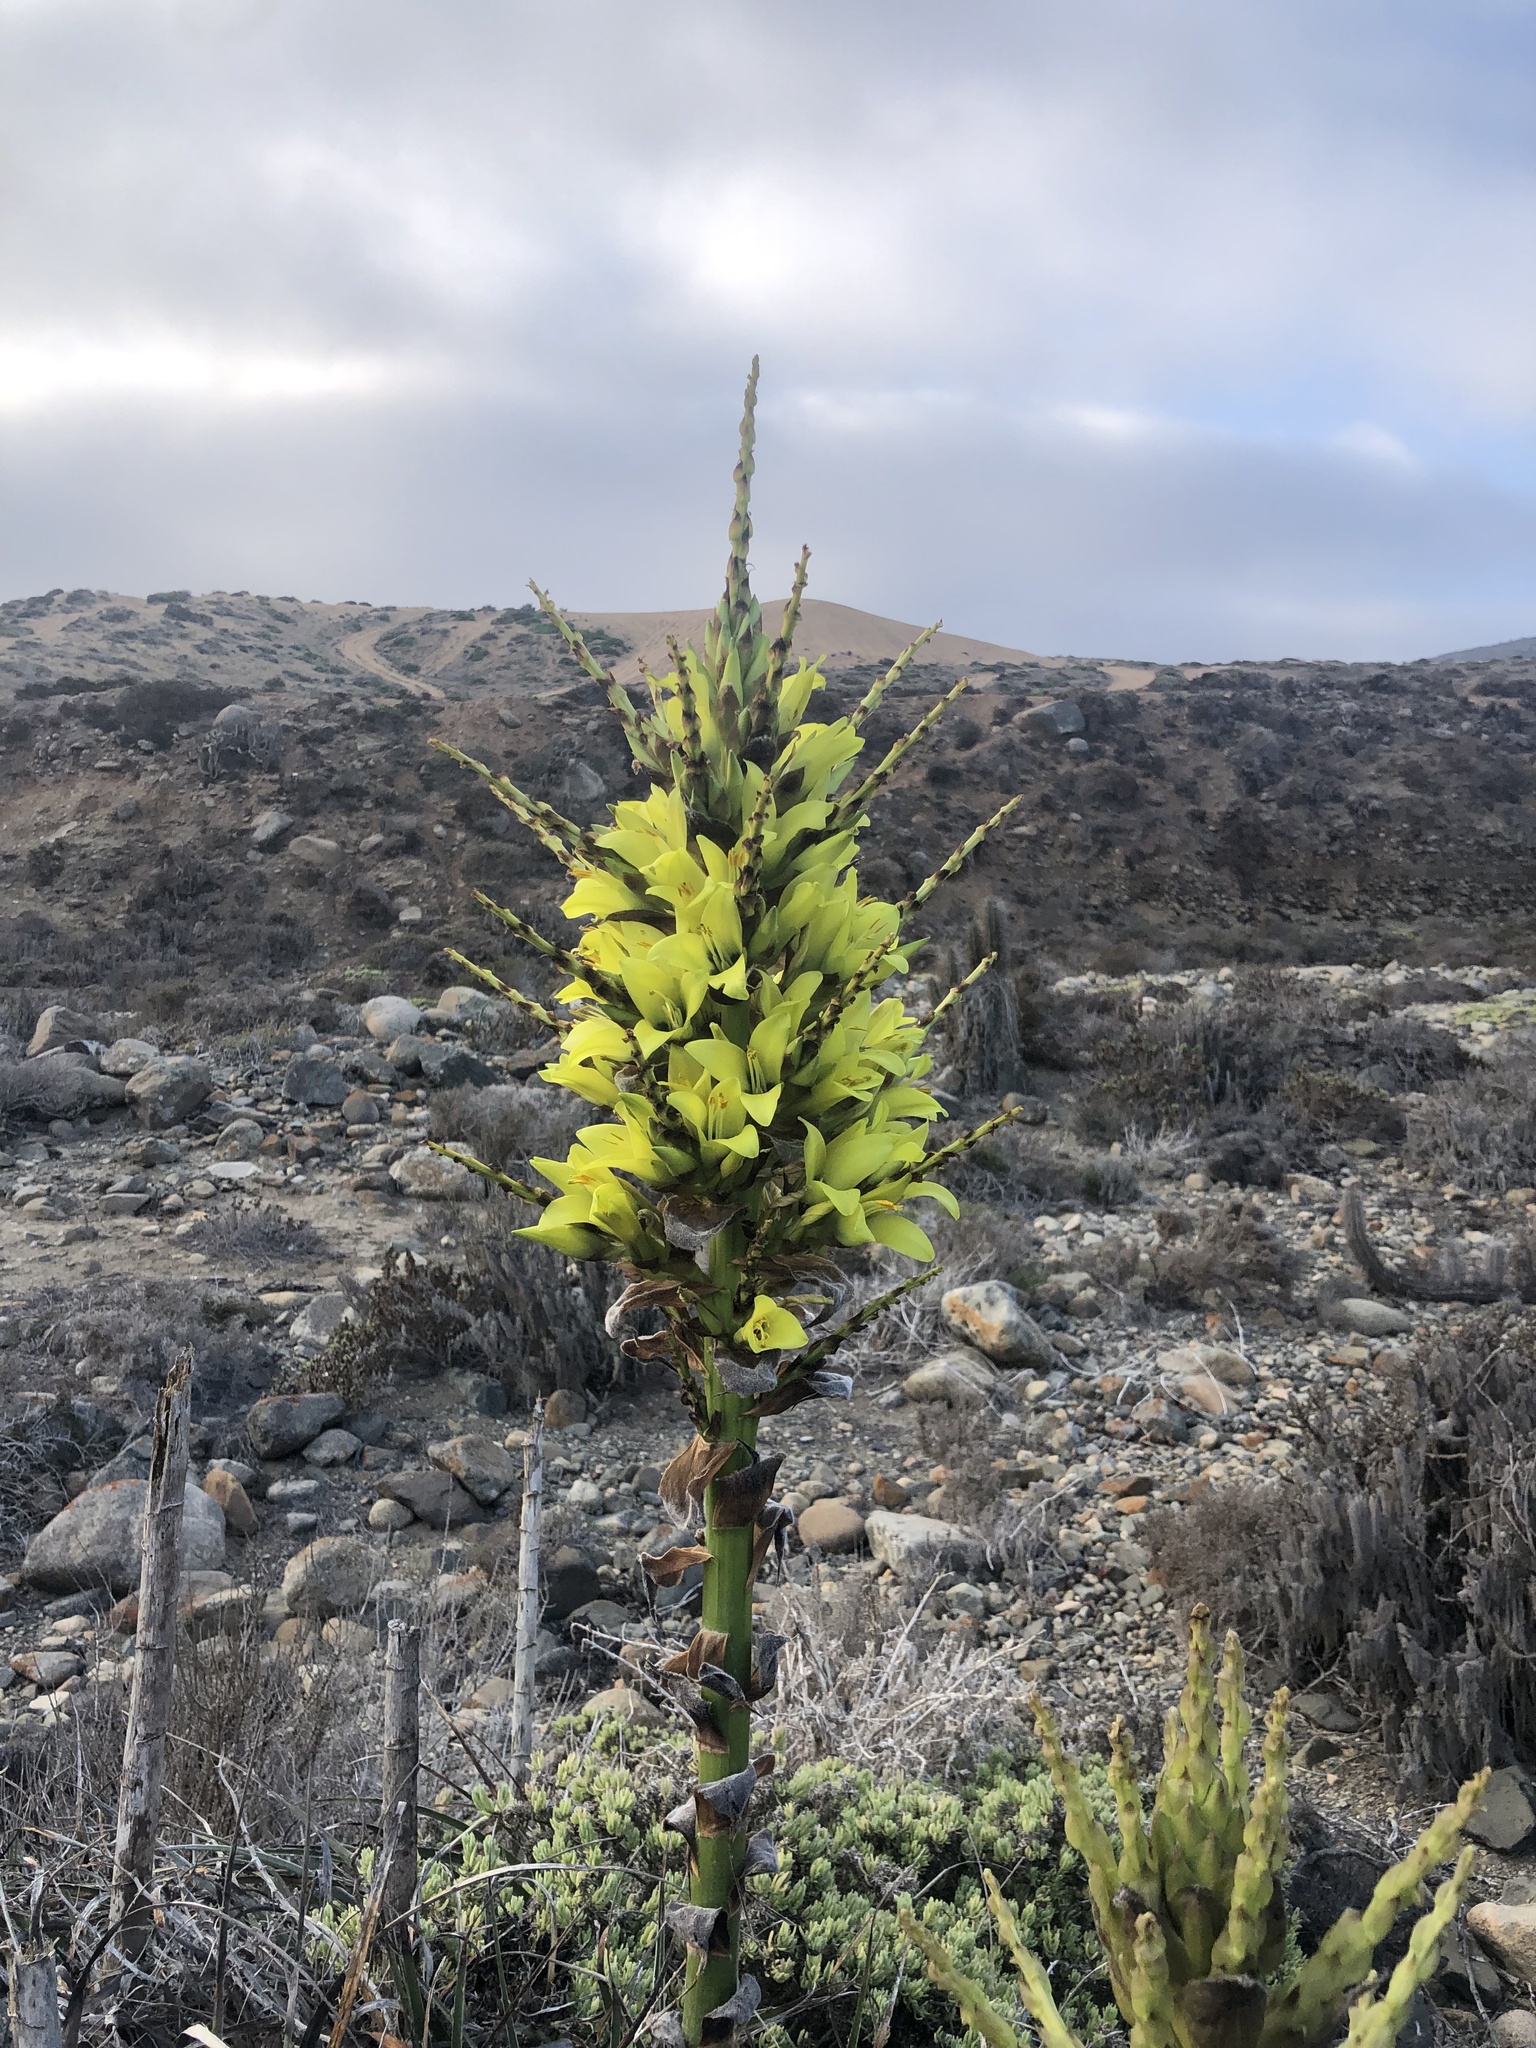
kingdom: Plantae
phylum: Tracheophyta
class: Liliopsida
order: Poales
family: Bromeliaceae
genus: Puya
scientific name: Puya chilensis
